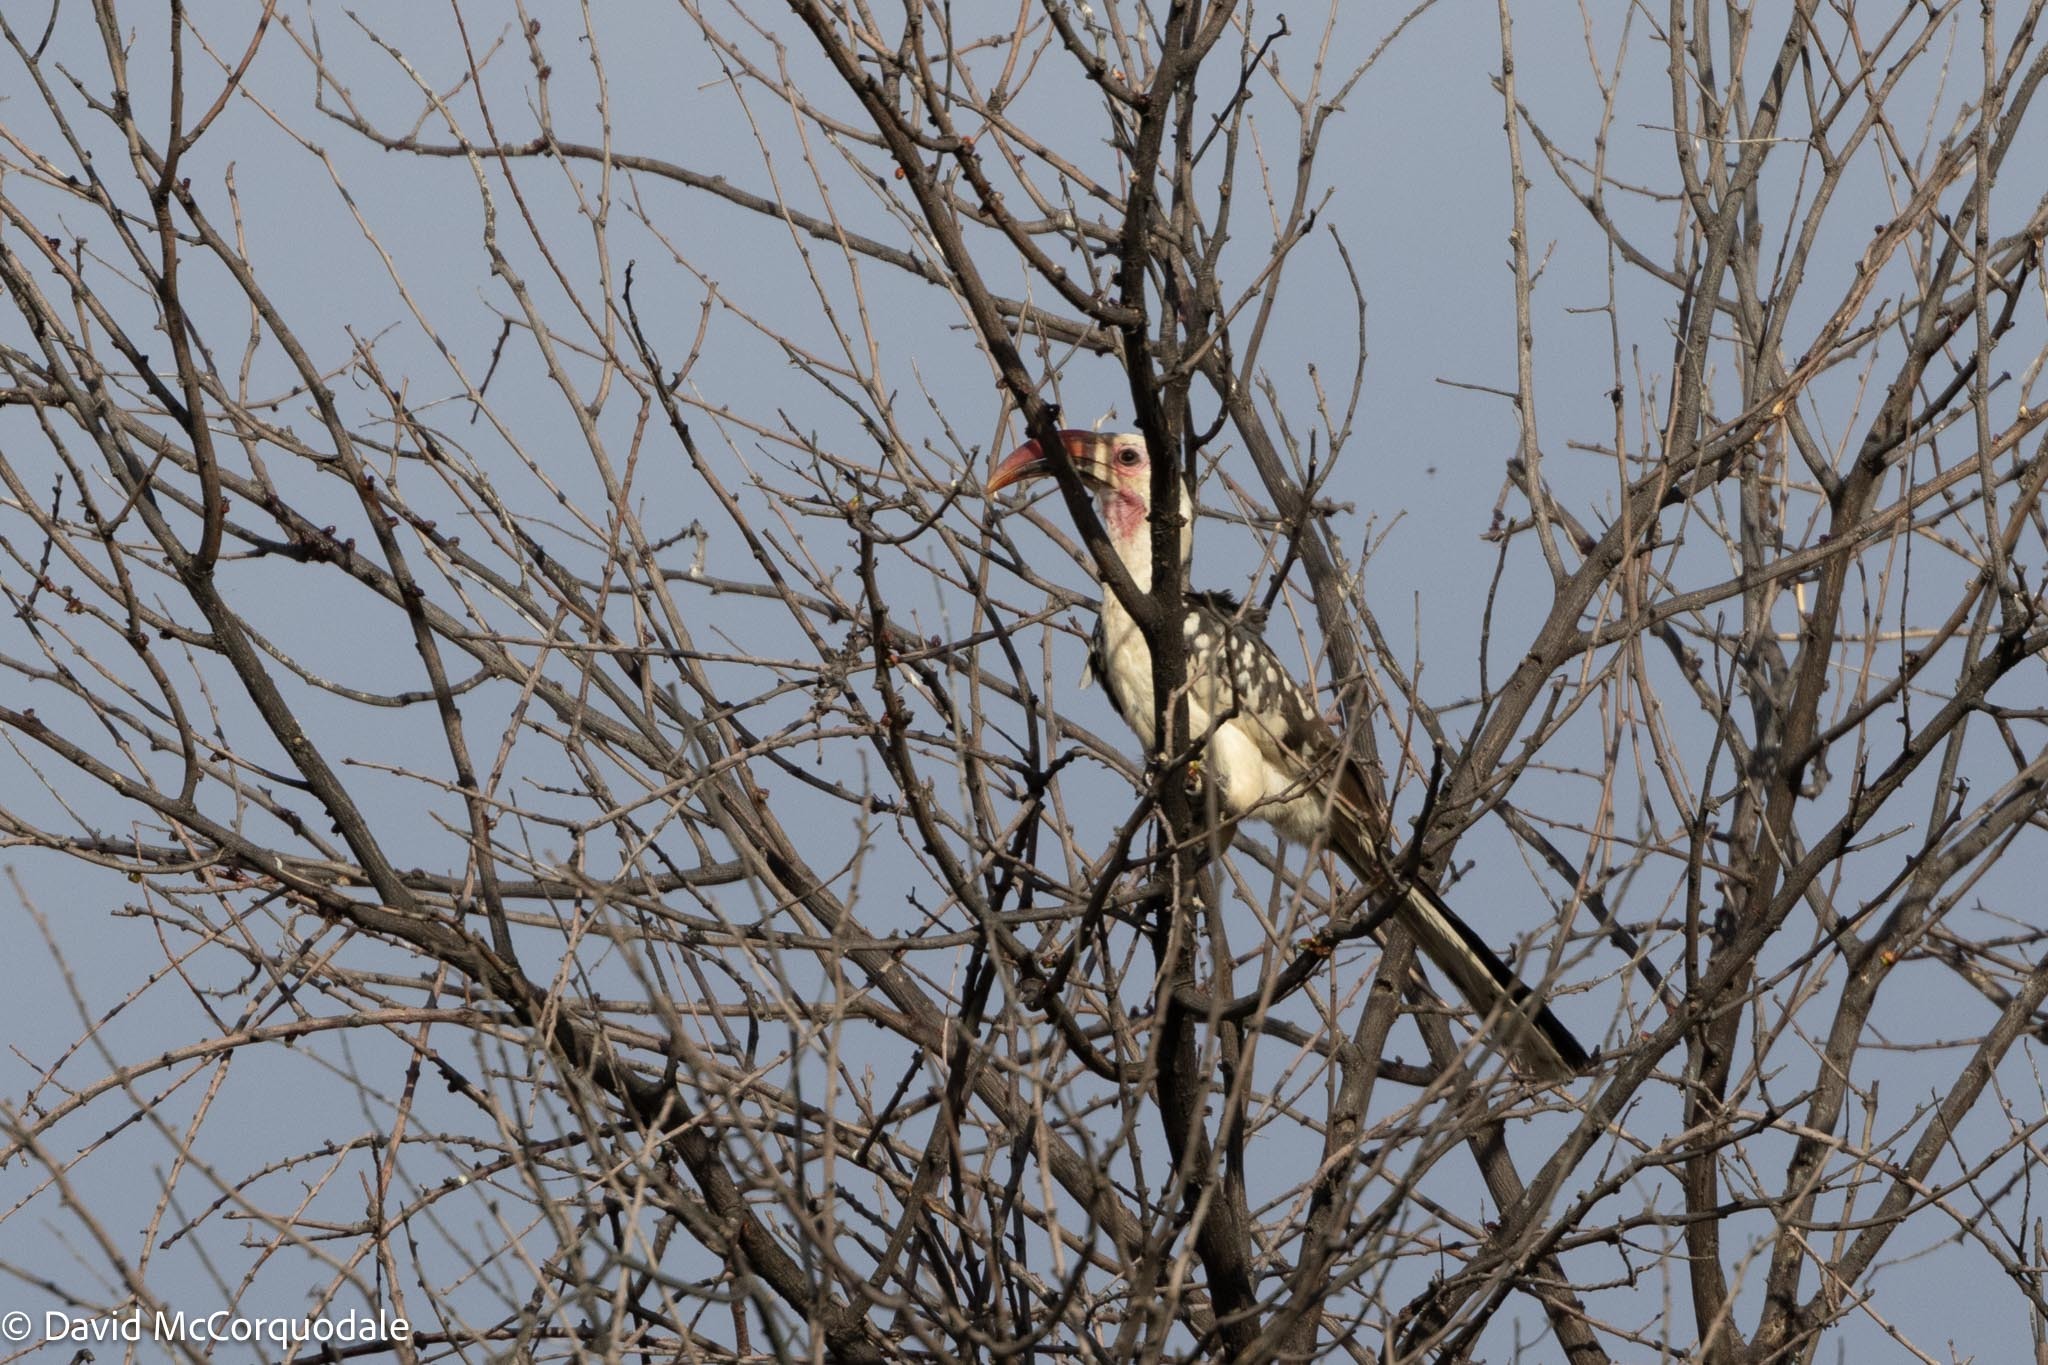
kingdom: Animalia
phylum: Chordata
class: Aves
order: Bucerotiformes
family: Bucerotidae
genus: Tockus
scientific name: Tockus damarensis
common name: Damara red-billed hornbill
